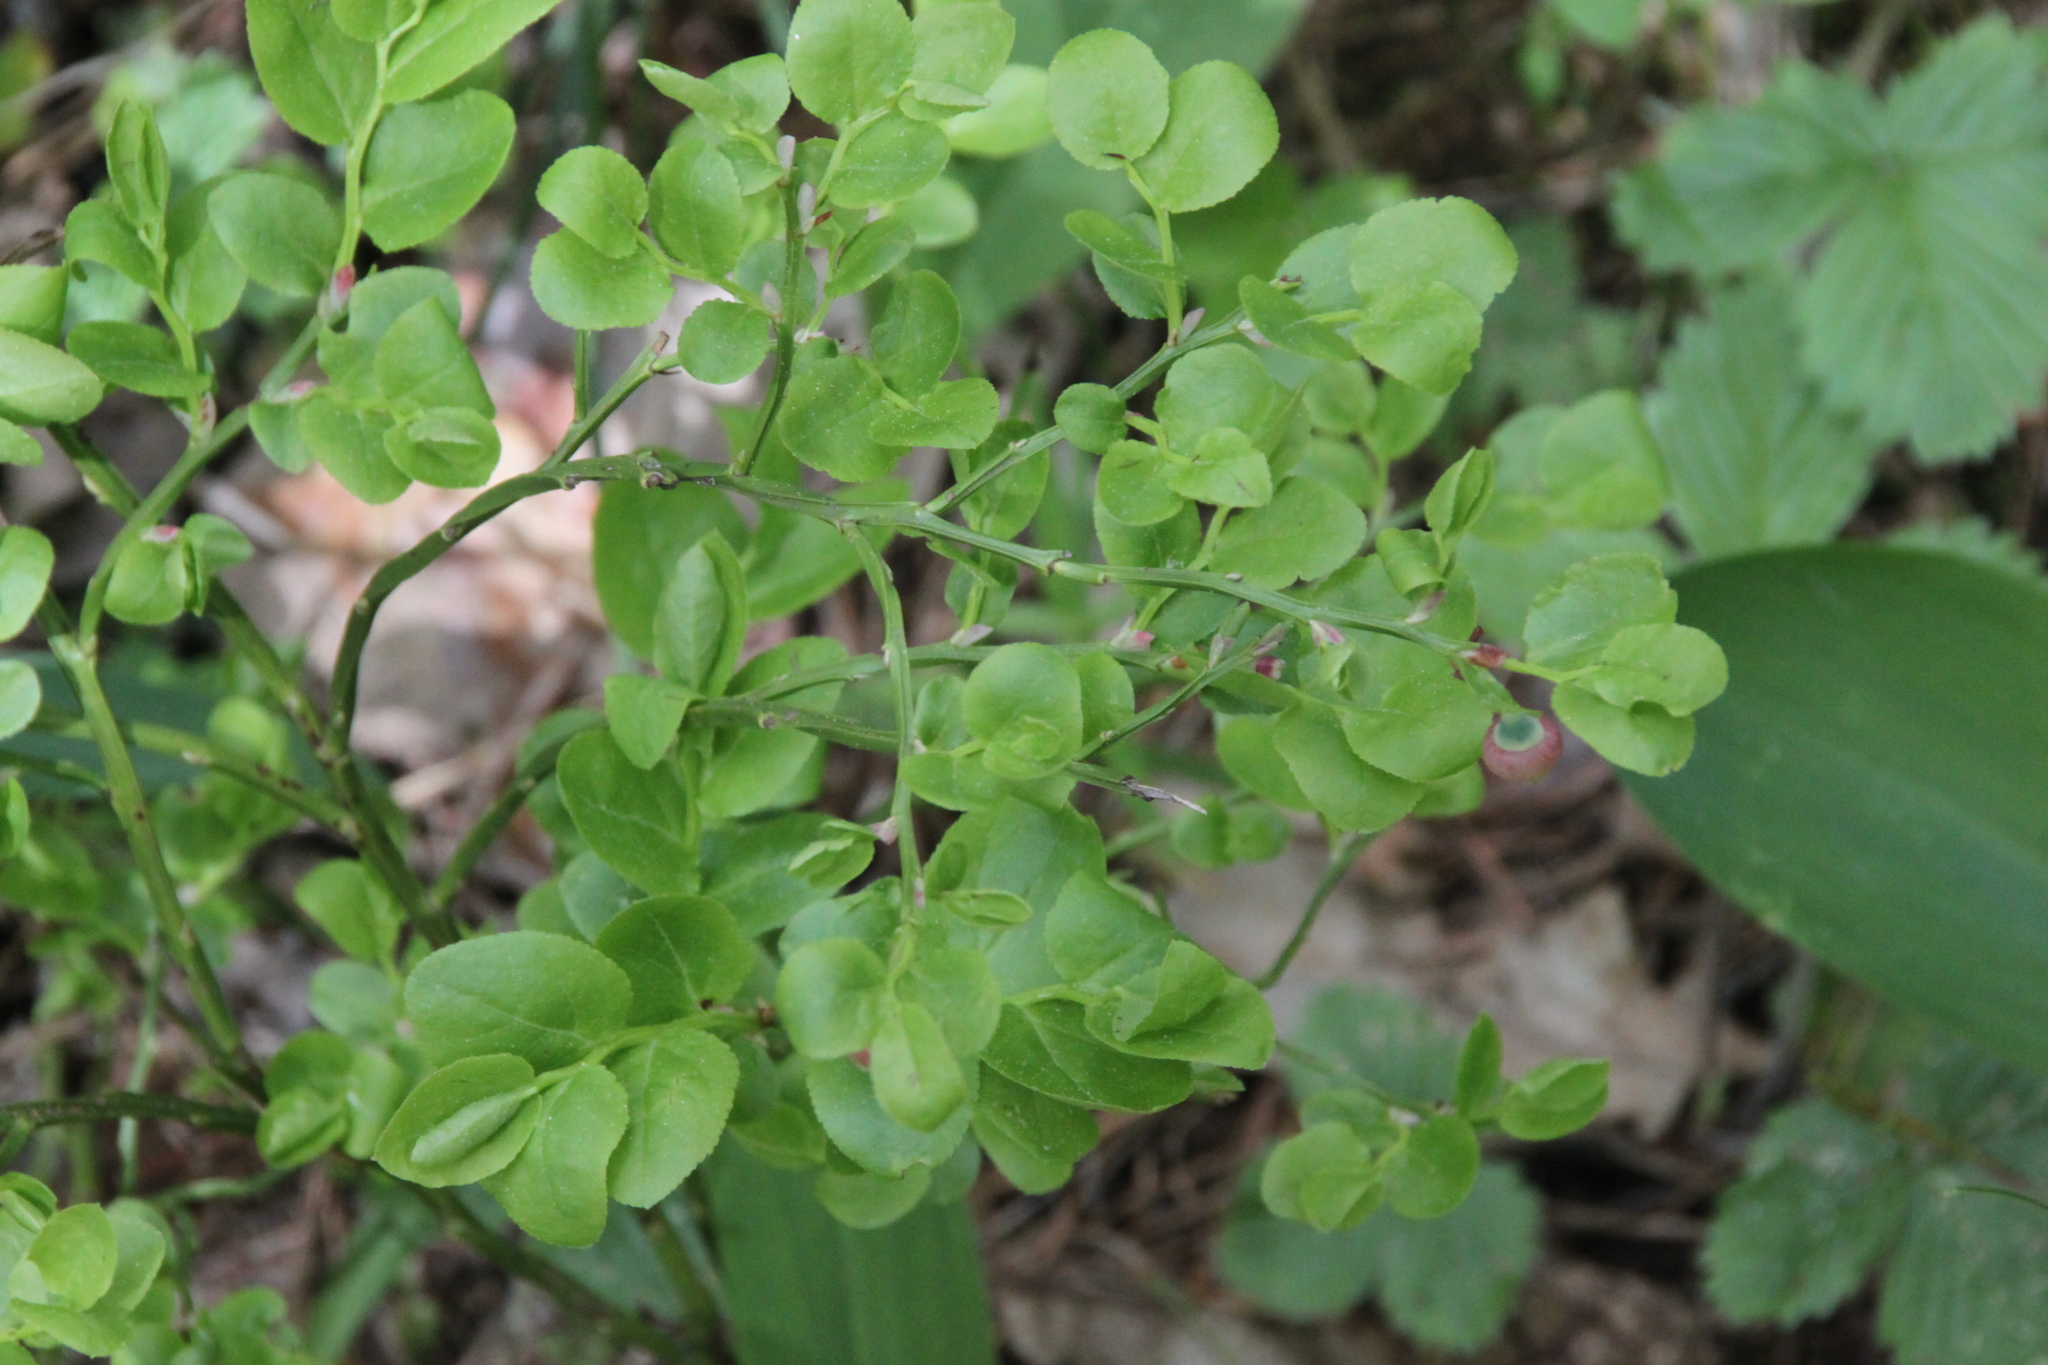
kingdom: Plantae
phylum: Tracheophyta
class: Magnoliopsida
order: Ericales
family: Ericaceae
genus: Vaccinium
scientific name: Vaccinium myrtillus
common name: Bilberry
